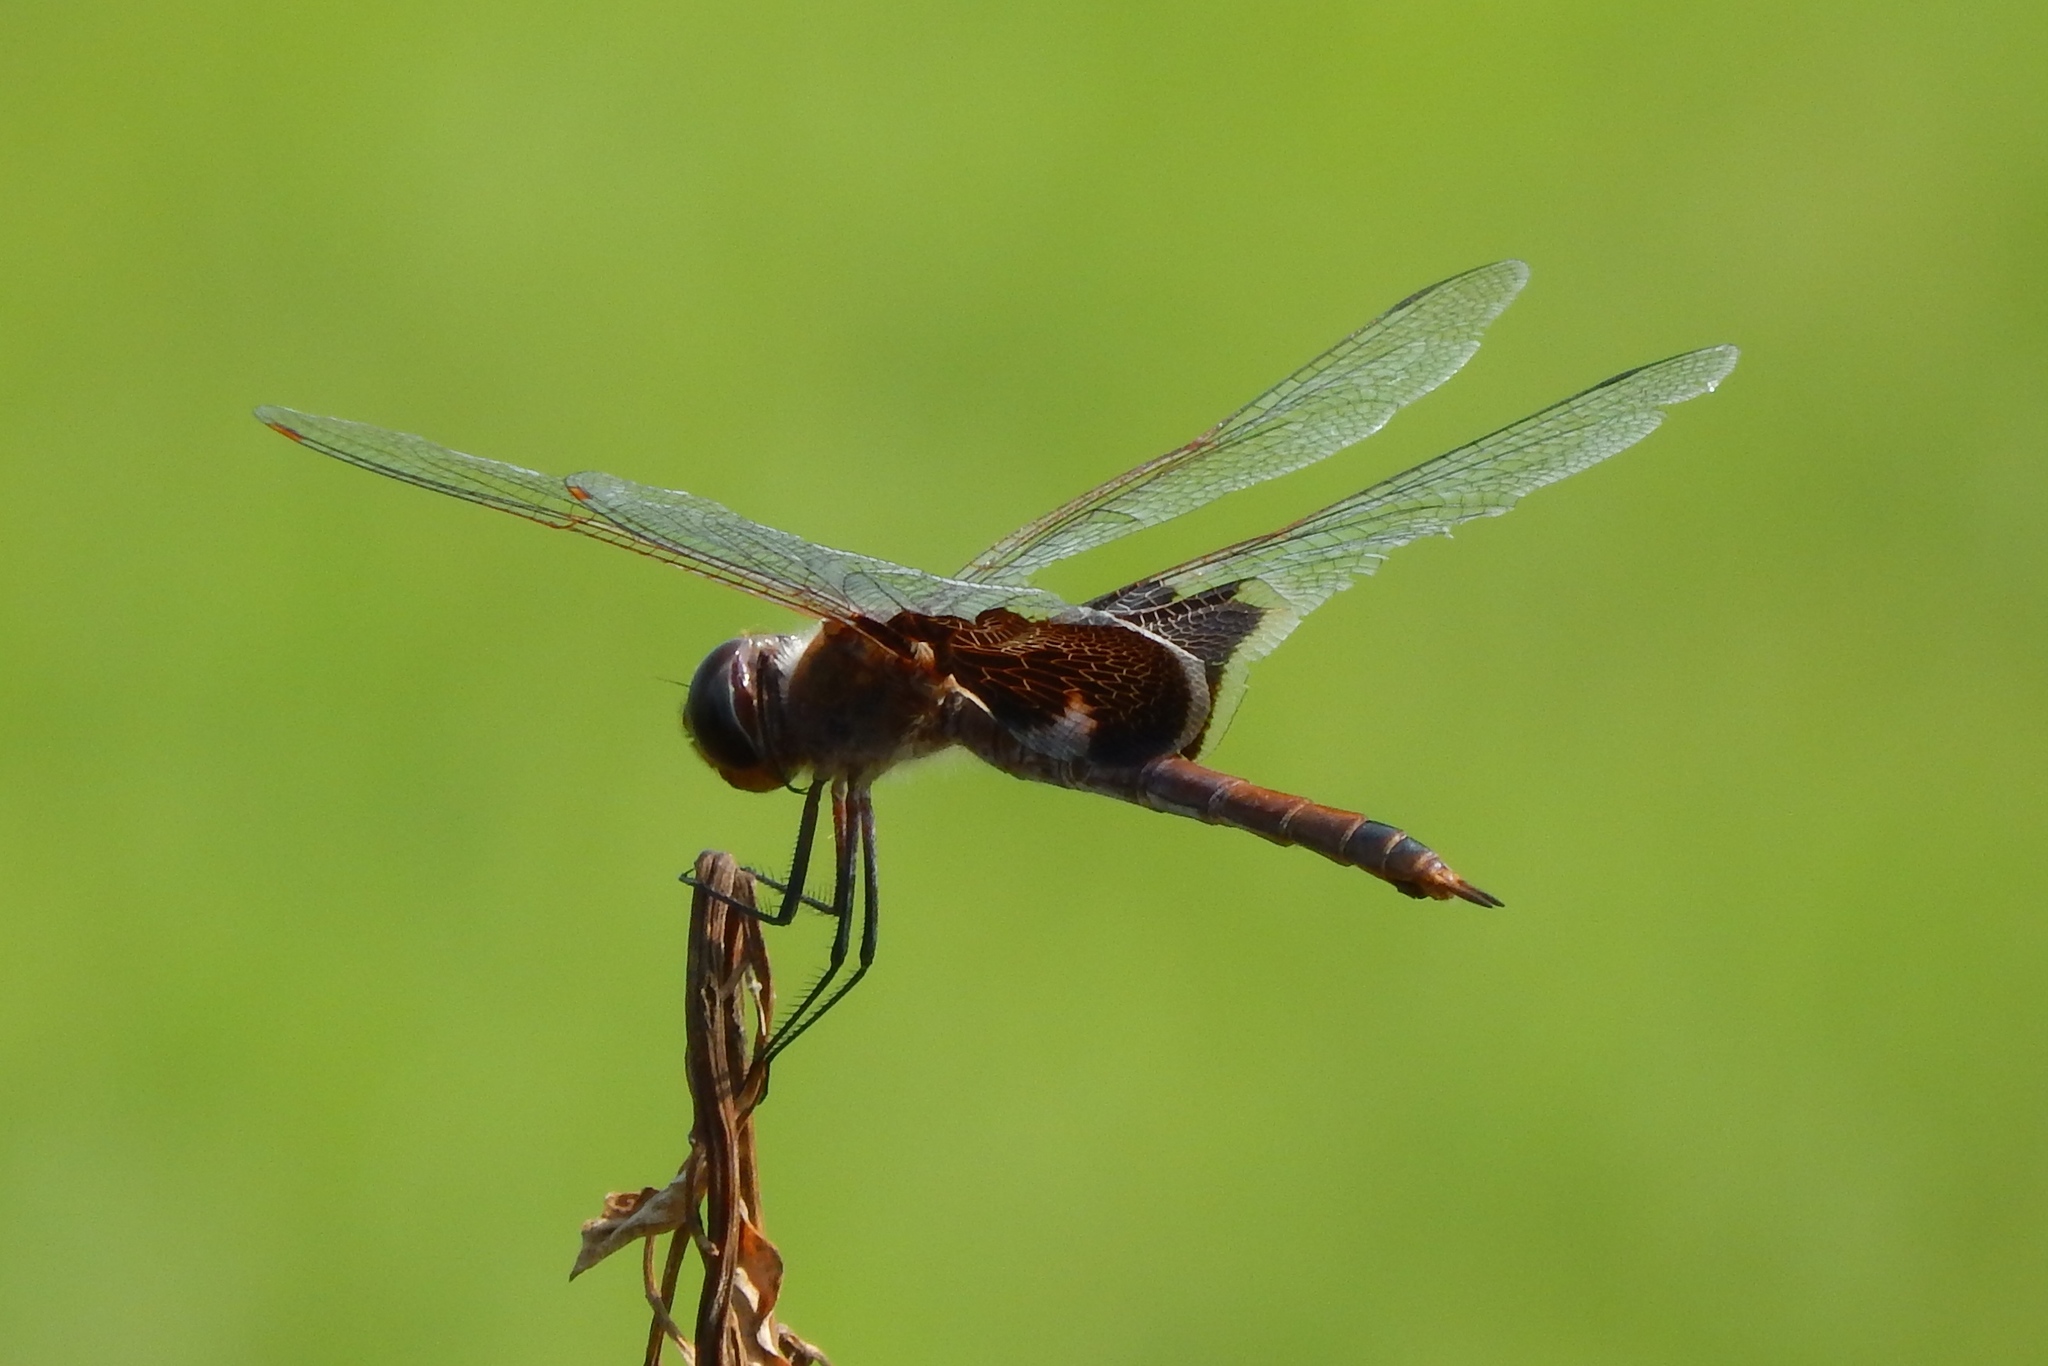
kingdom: Animalia
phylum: Arthropoda
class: Insecta
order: Odonata
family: Libellulidae
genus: Tramea
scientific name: Tramea carolina
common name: Carolina saddlebags
